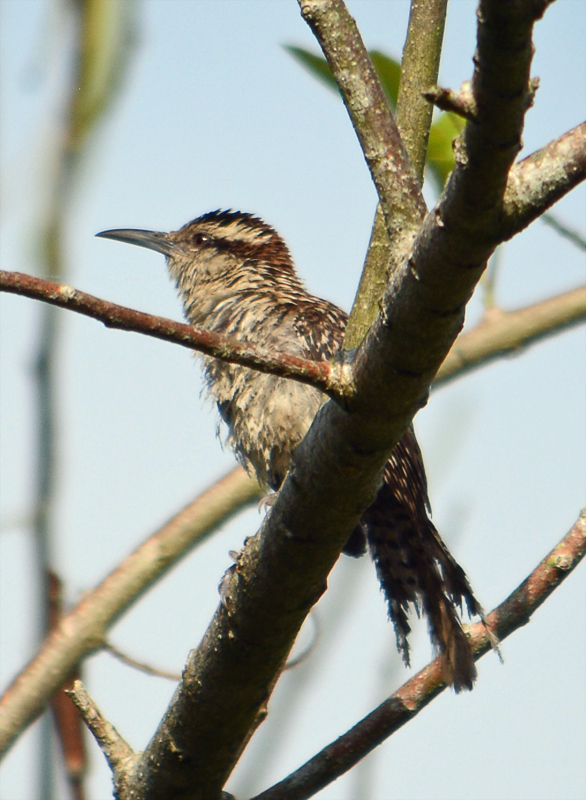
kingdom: Animalia
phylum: Chordata
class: Aves
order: Passeriformes
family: Troglodytidae
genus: Campylorhynchus
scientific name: Campylorhynchus rufinucha
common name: Rufous-naped wren
